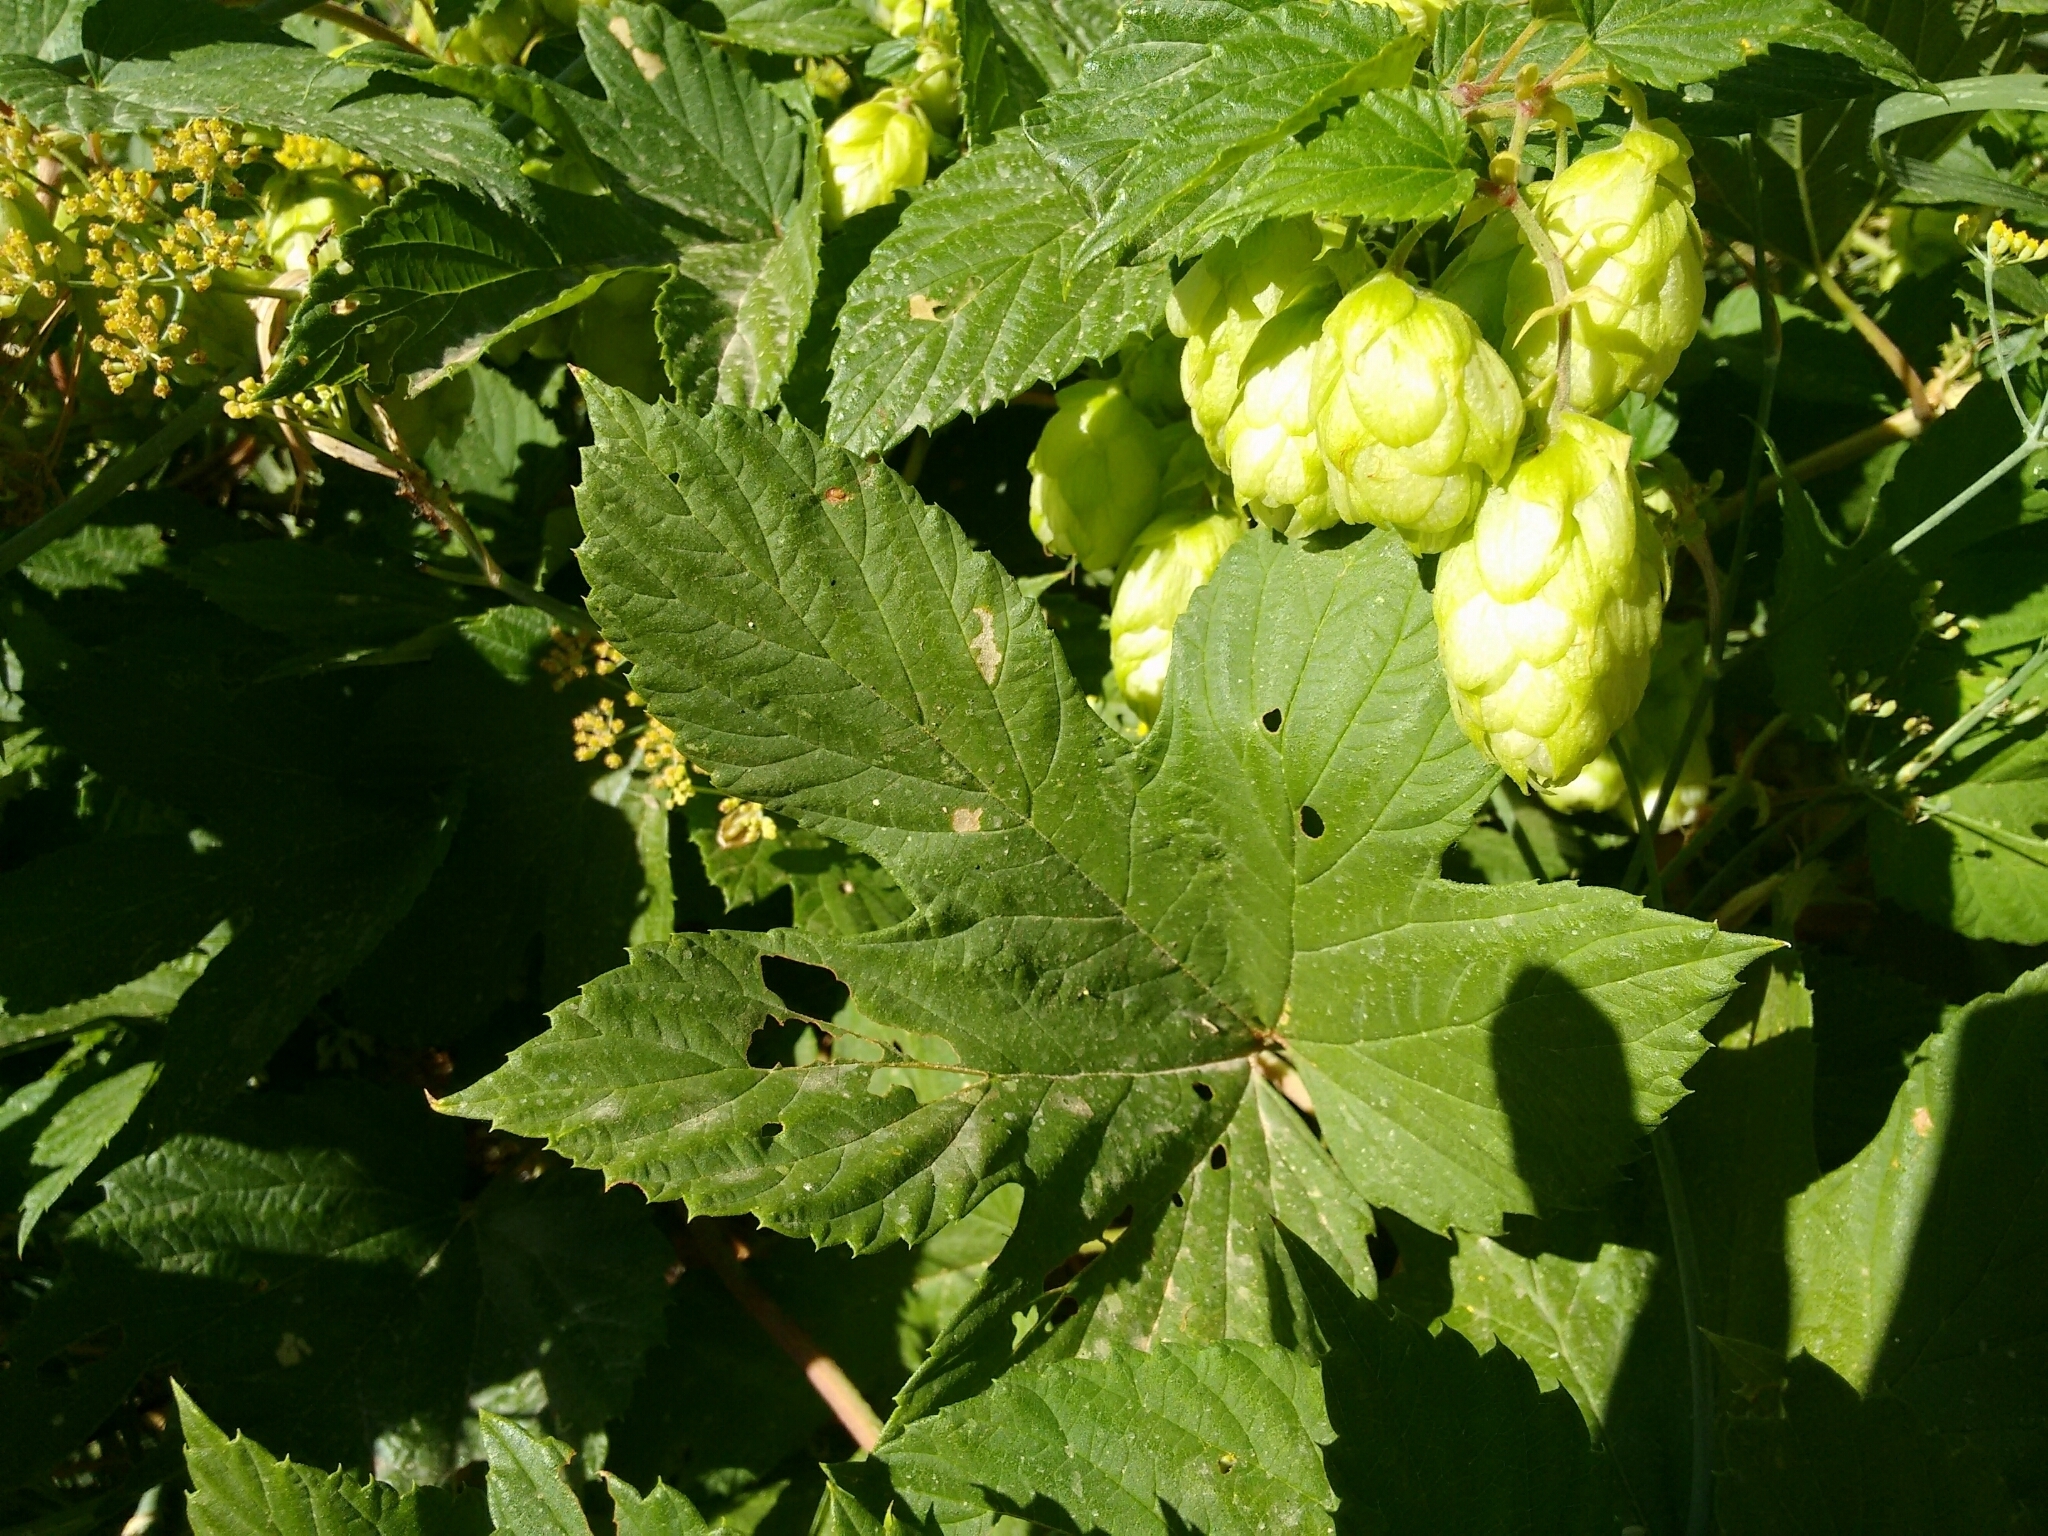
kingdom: Plantae
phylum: Tracheophyta
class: Magnoliopsida
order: Rosales
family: Cannabaceae
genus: Humulus
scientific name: Humulus lupulus
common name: Hop
